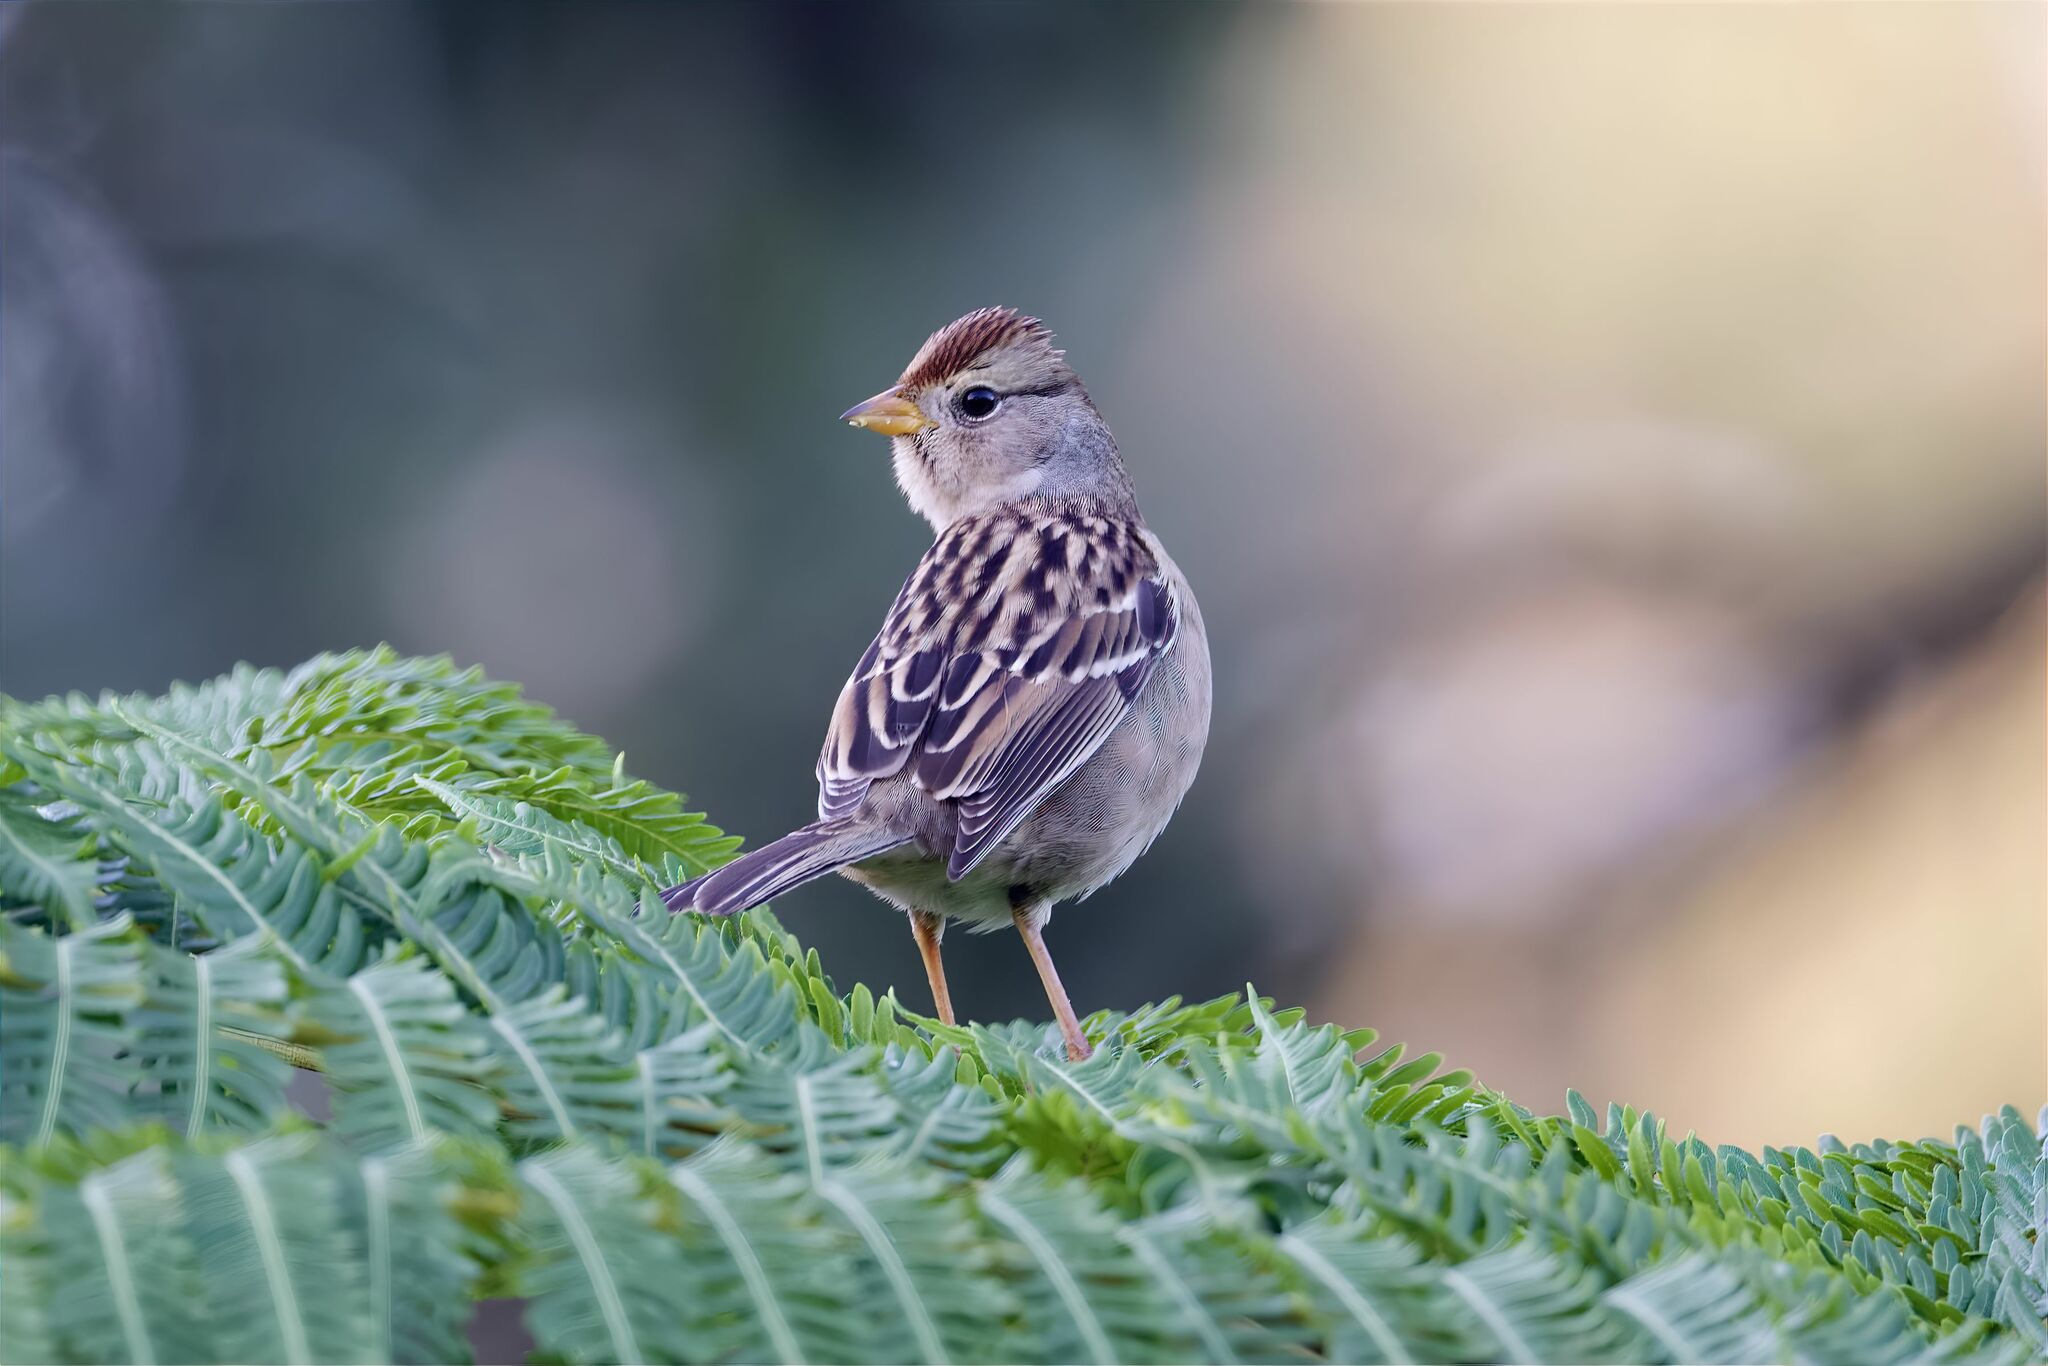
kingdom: Animalia
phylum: Chordata
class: Aves
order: Passeriformes
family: Passerellidae
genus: Zonotrichia
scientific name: Zonotrichia leucophrys
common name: White-crowned sparrow
